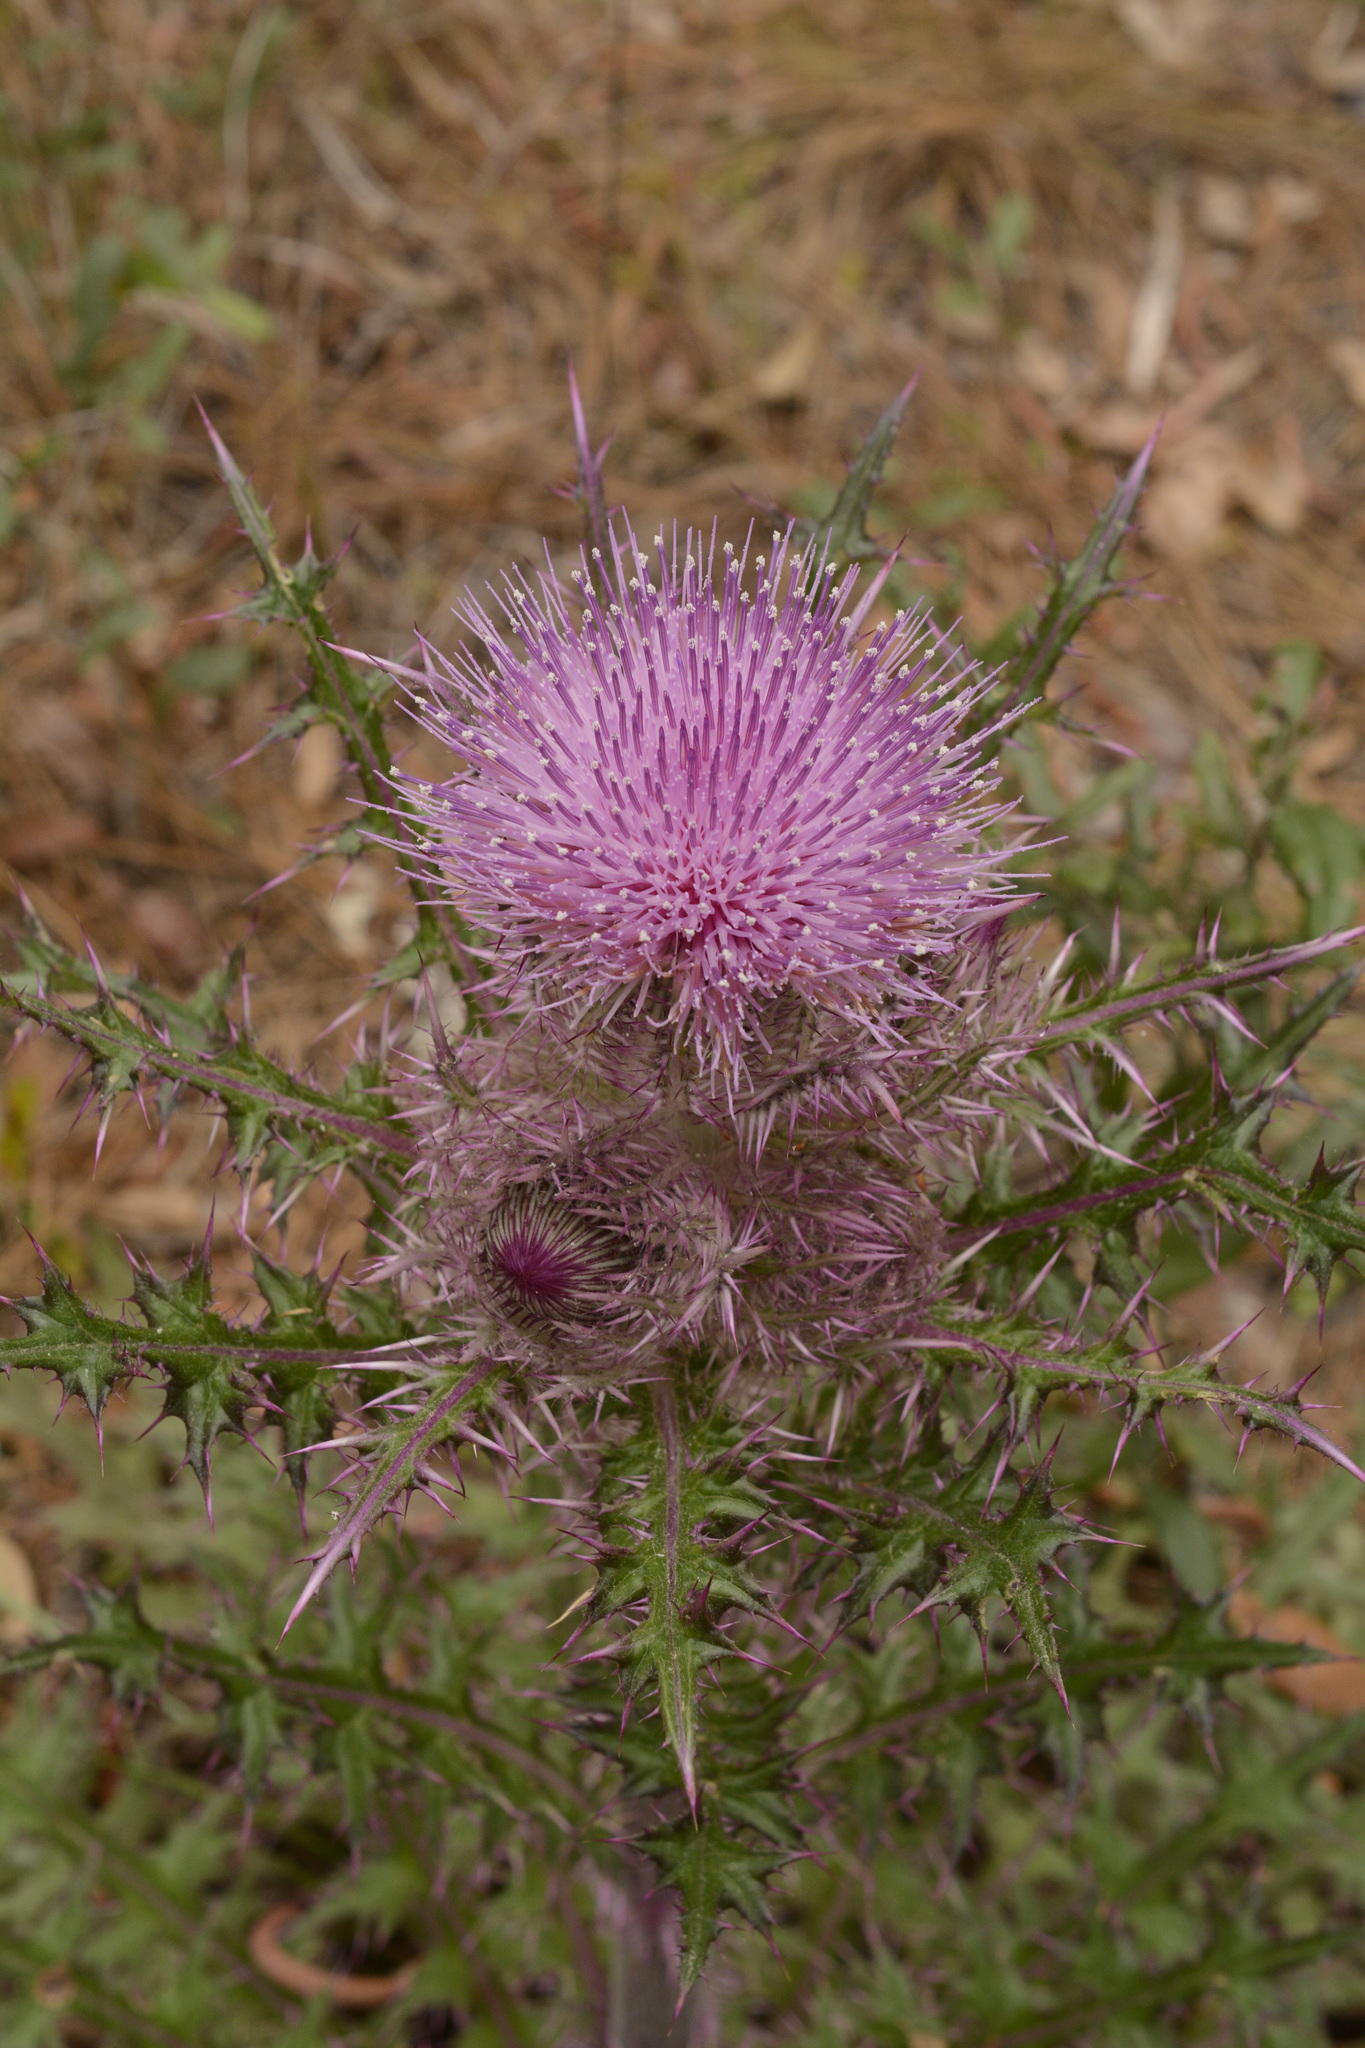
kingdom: Plantae
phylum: Tracheophyta
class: Magnoliopsida
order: Asterales
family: Asteraceae
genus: Cirsium
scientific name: Cirsium horridulum
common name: Bristly thistle
